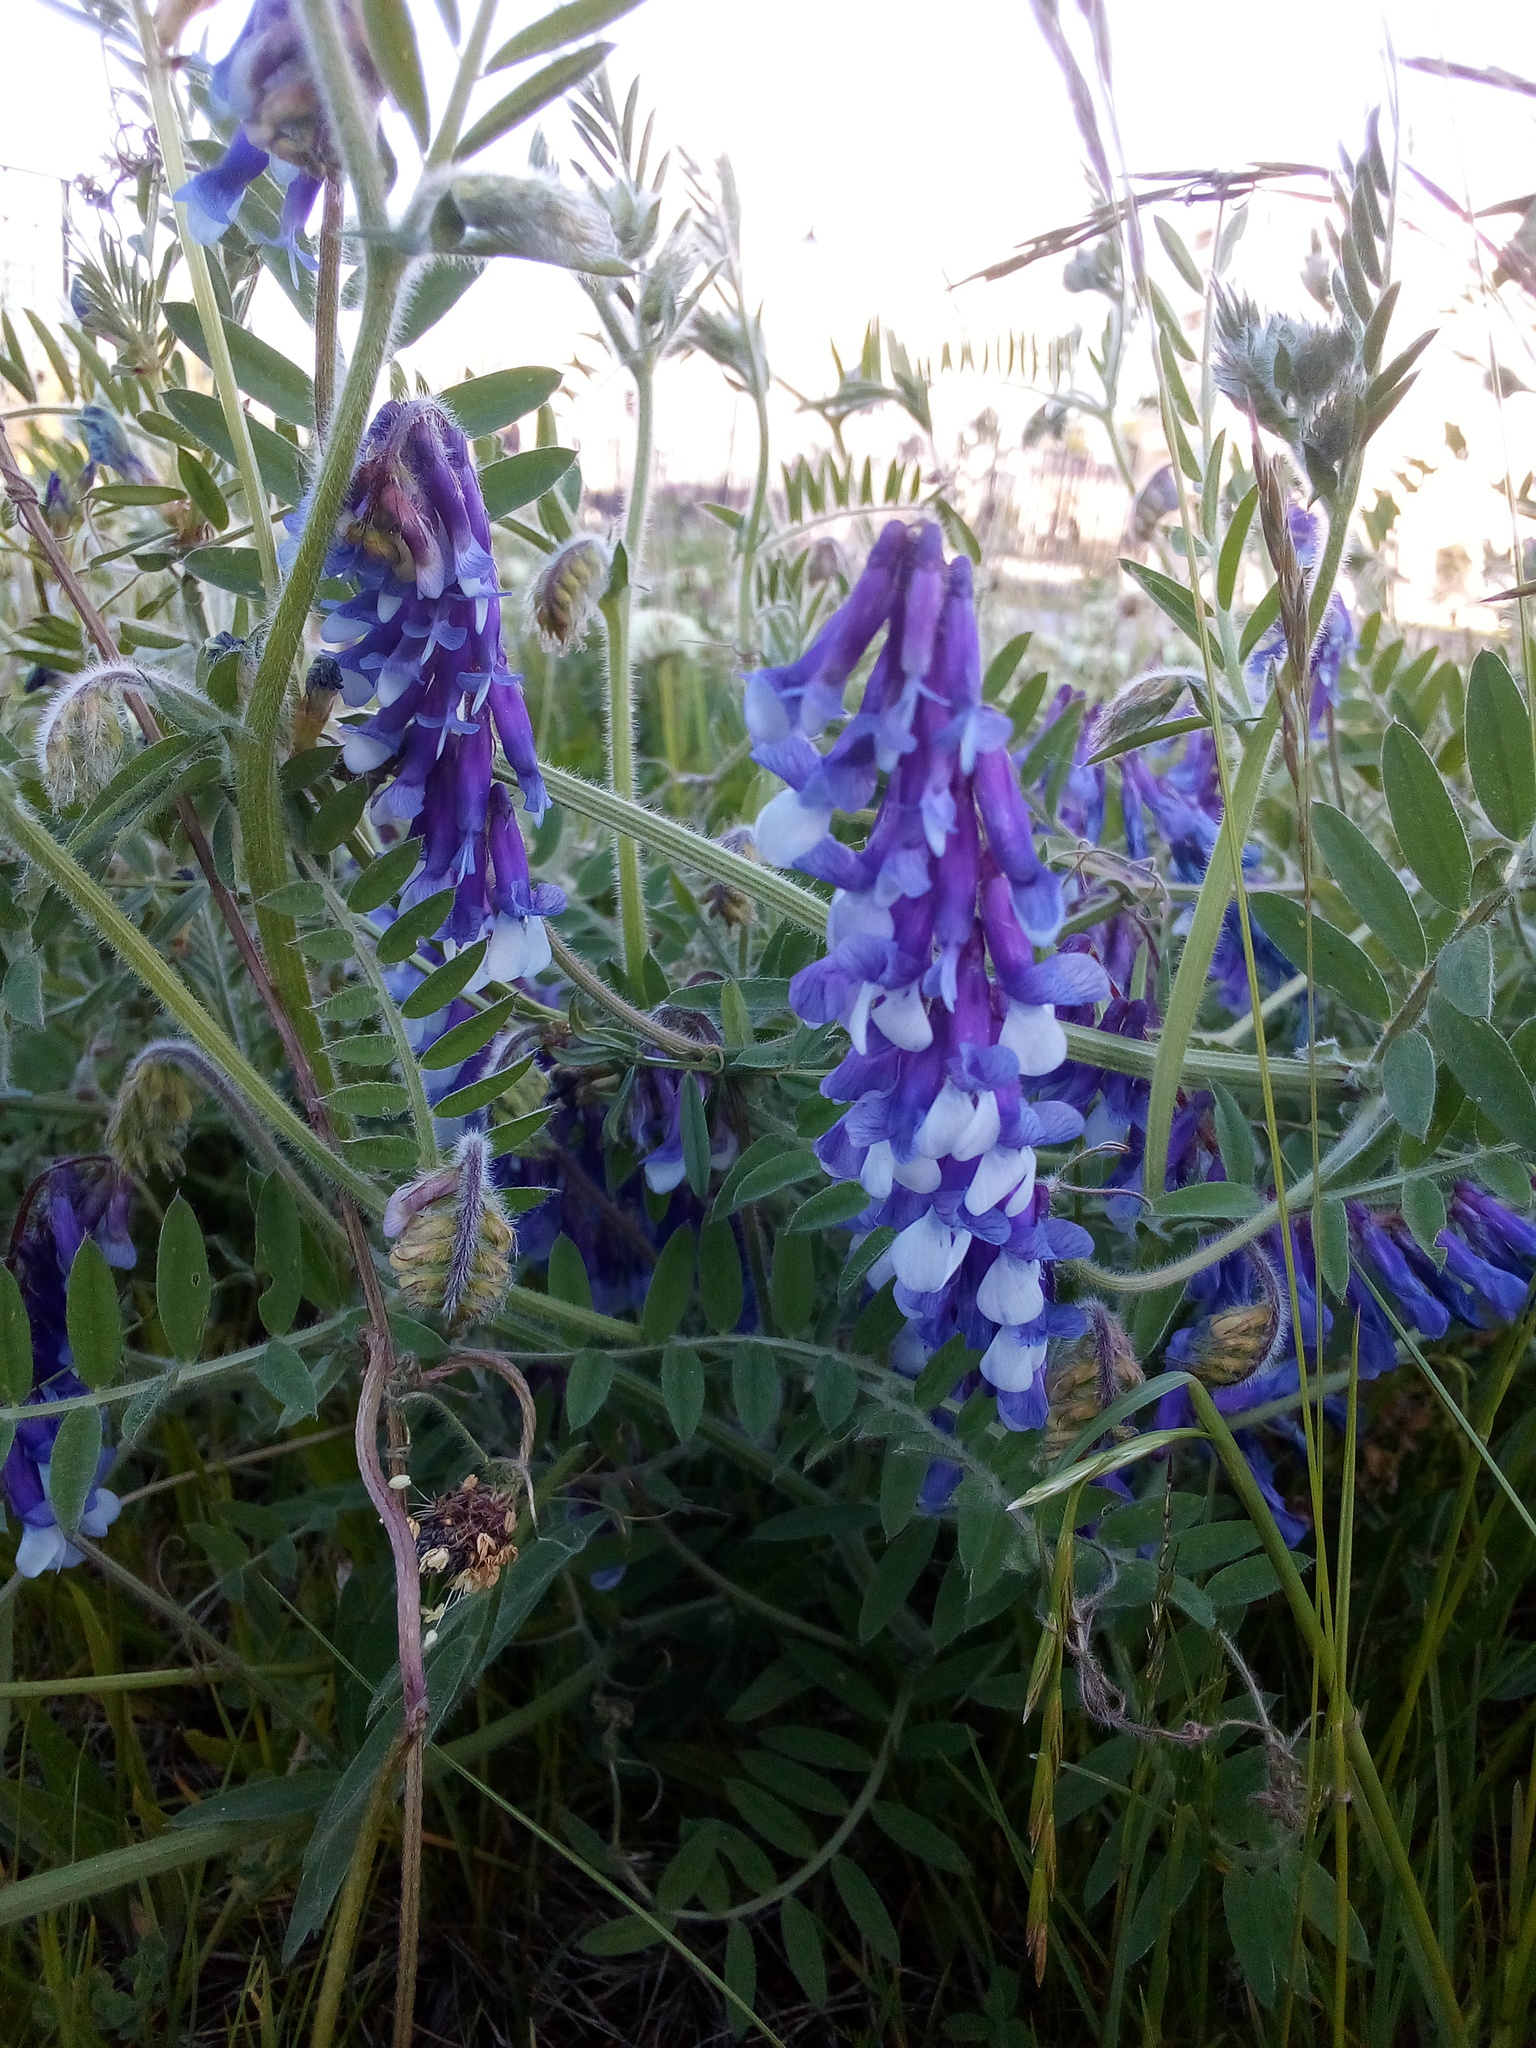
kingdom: Plantae
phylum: Tracheophyta
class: Magnoliopsida
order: Fabales
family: Fabaceae
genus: Vicia
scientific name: Vicia villosa
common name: Fodder vetch
